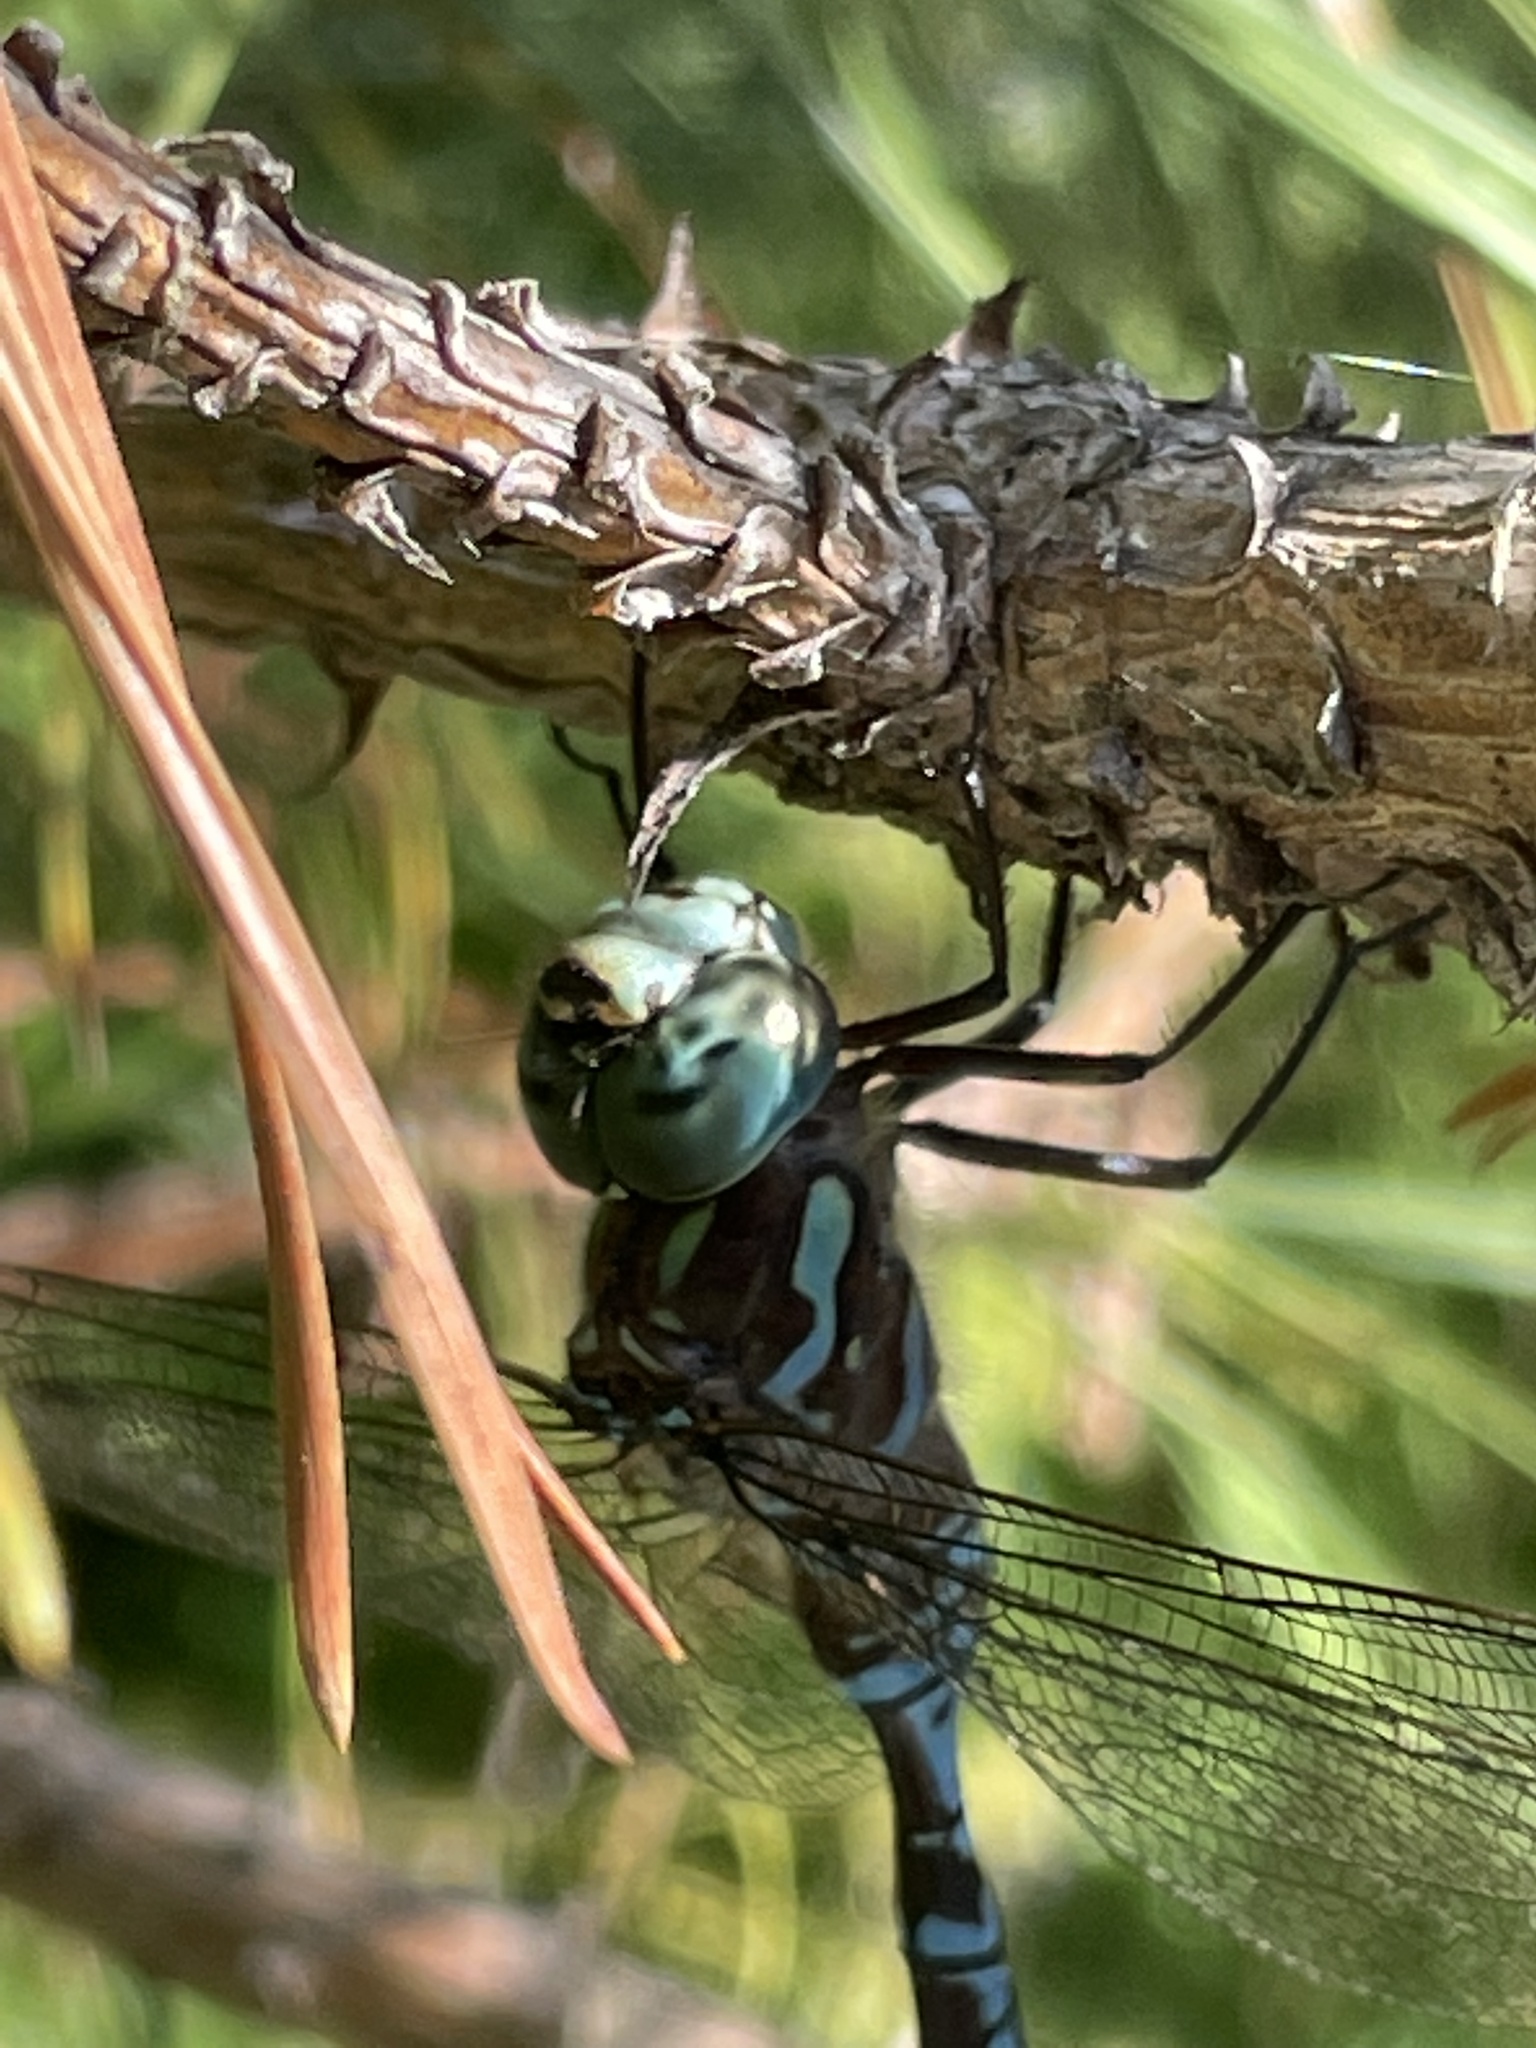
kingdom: Animalia
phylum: Arthropoda
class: Insecta
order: Odonata
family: Aeshnidae
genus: Aeshna
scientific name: Aeshna canadensis
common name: Canada darner
